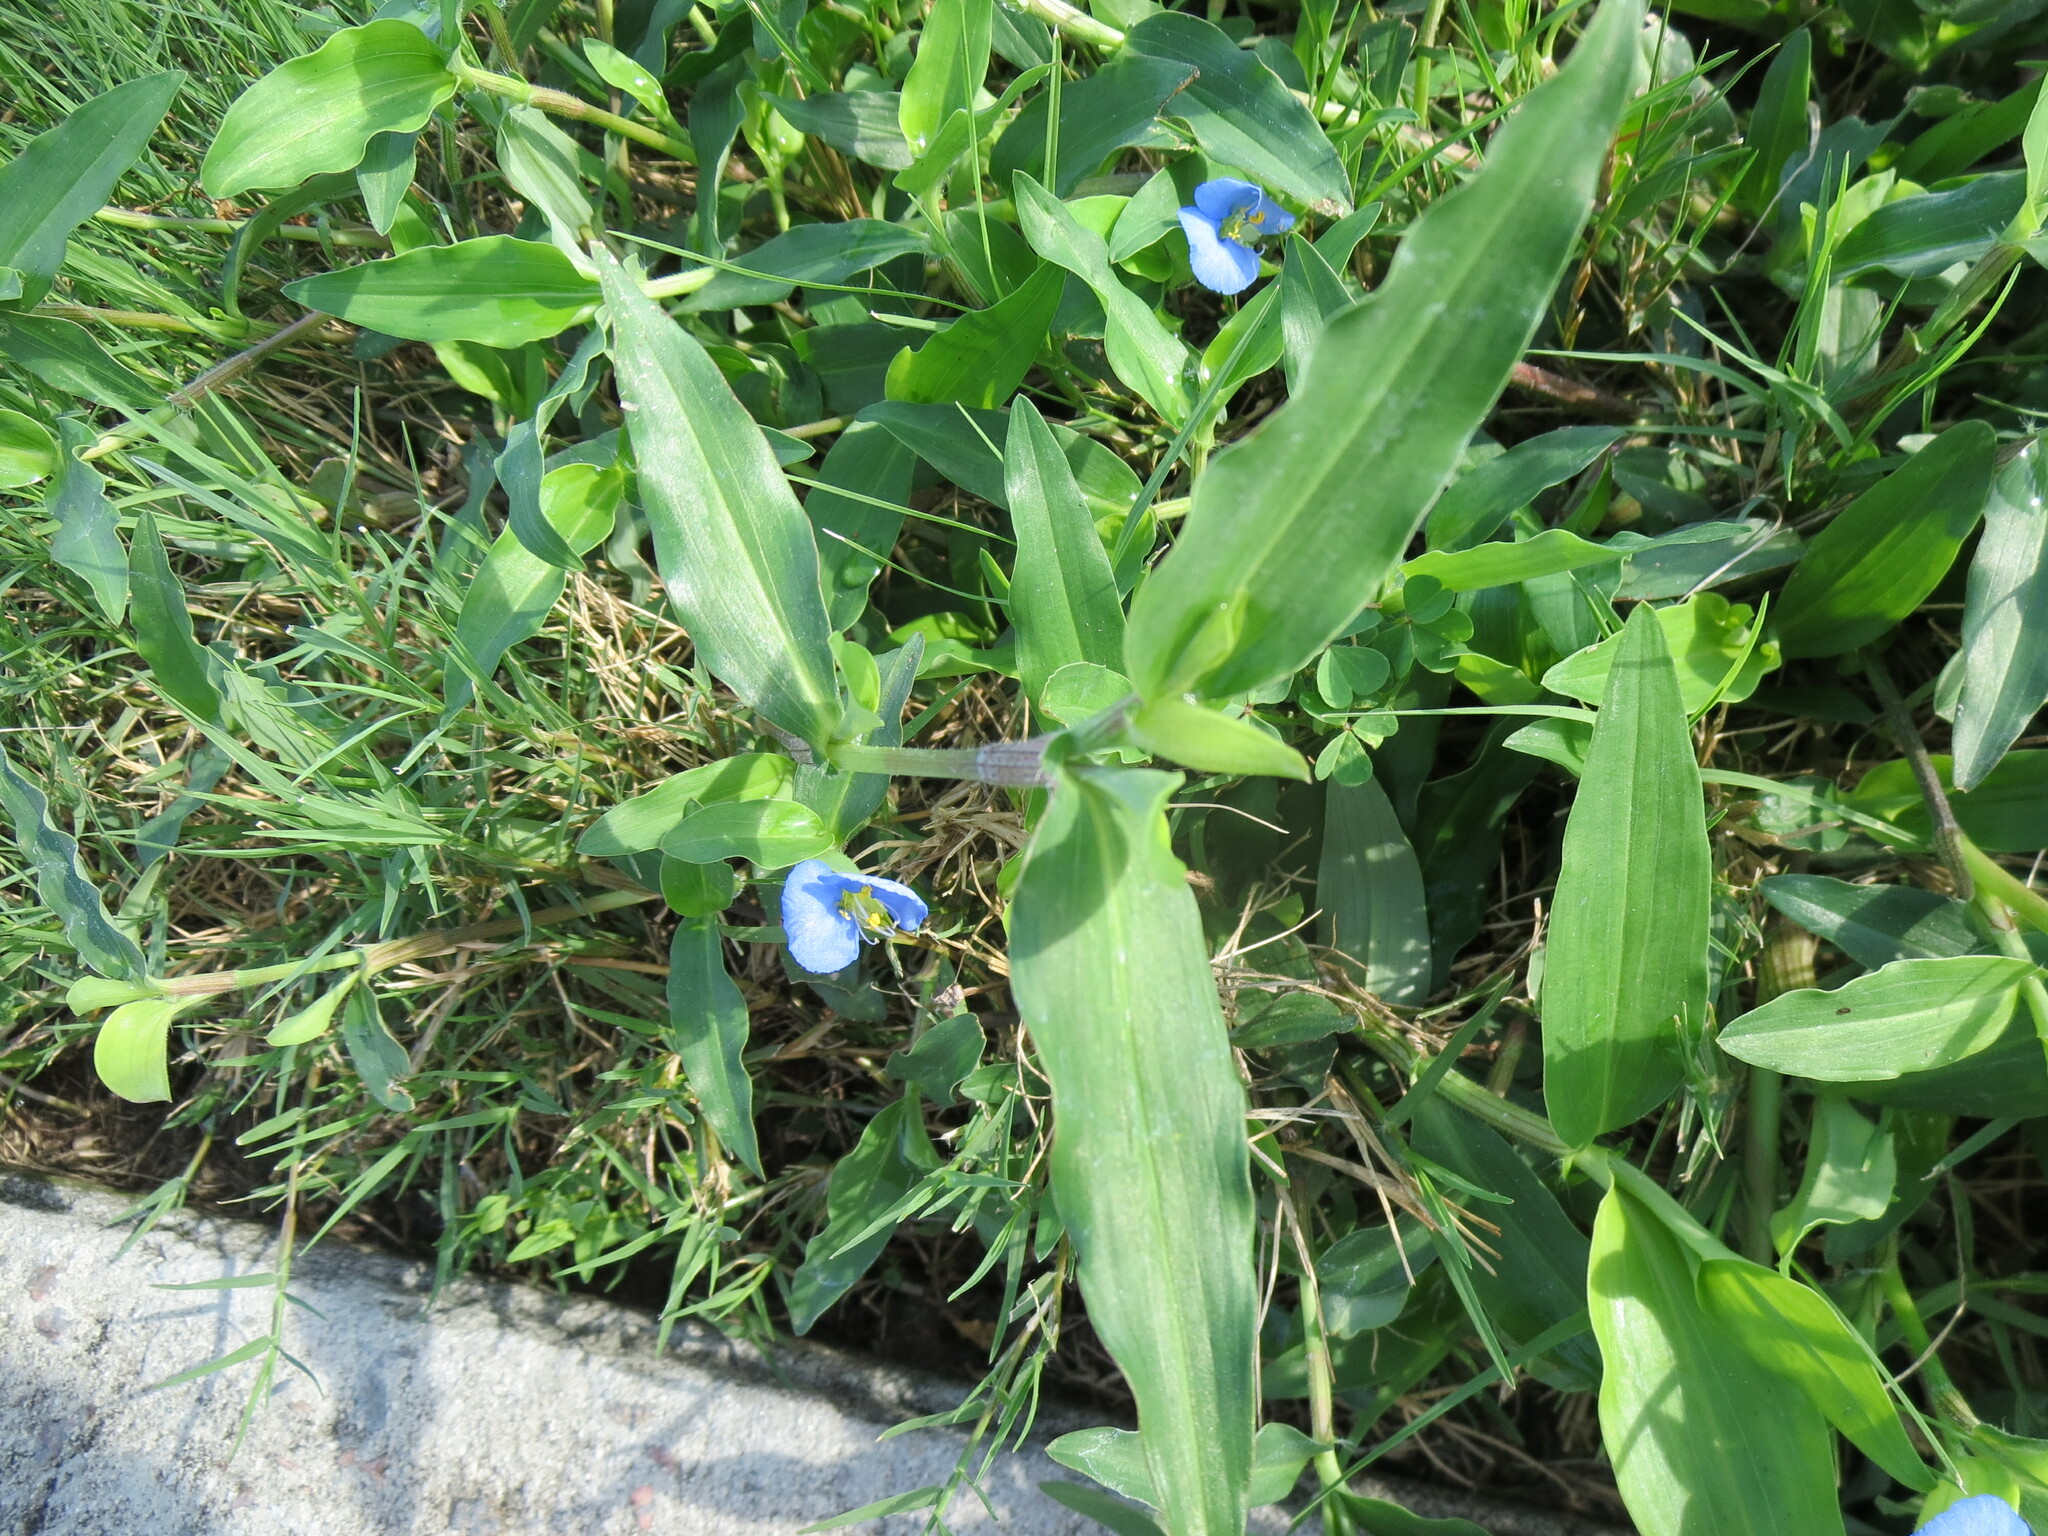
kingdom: Plantae
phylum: Tracheophyta
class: Liliopsida
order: Commelinales
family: Commelinaceae
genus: Commelina
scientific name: Commelina erecta
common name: Blousel blommetjie
